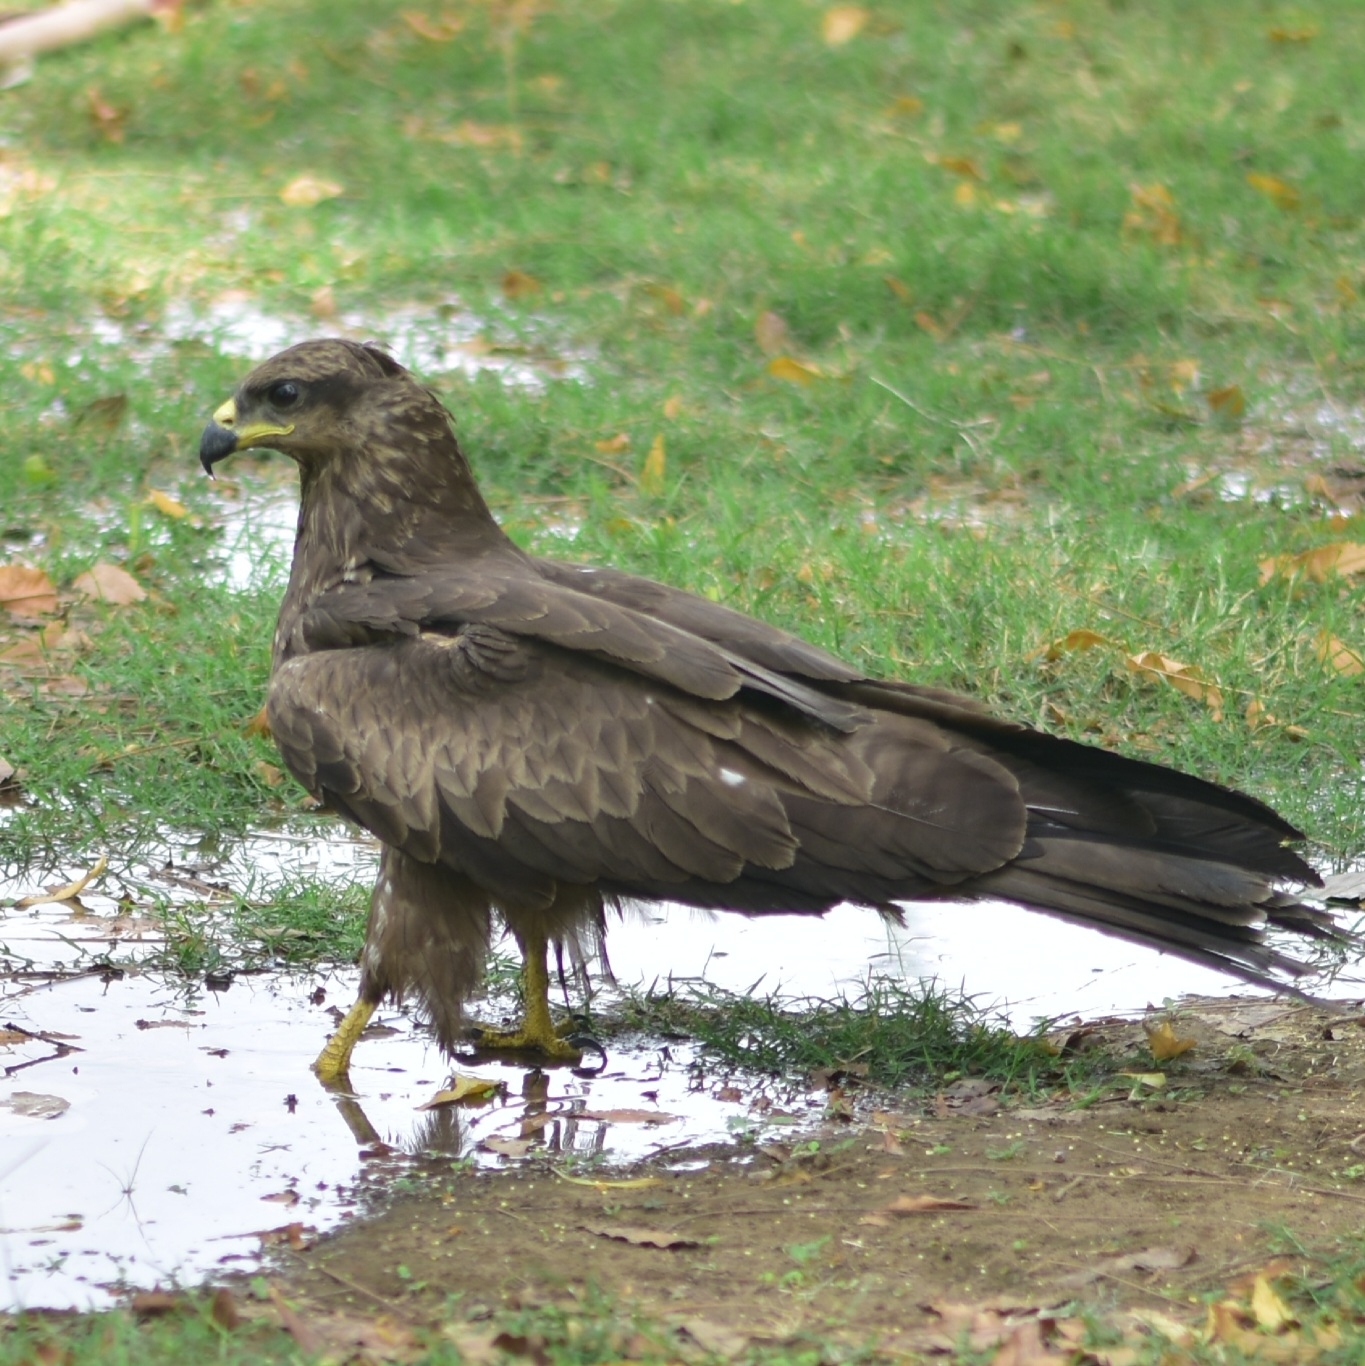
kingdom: Animalia
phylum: Chordata
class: Aves
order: Accipitriformes
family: Accipitridae
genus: Milvus
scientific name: Milvus migrans
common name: Black kite
